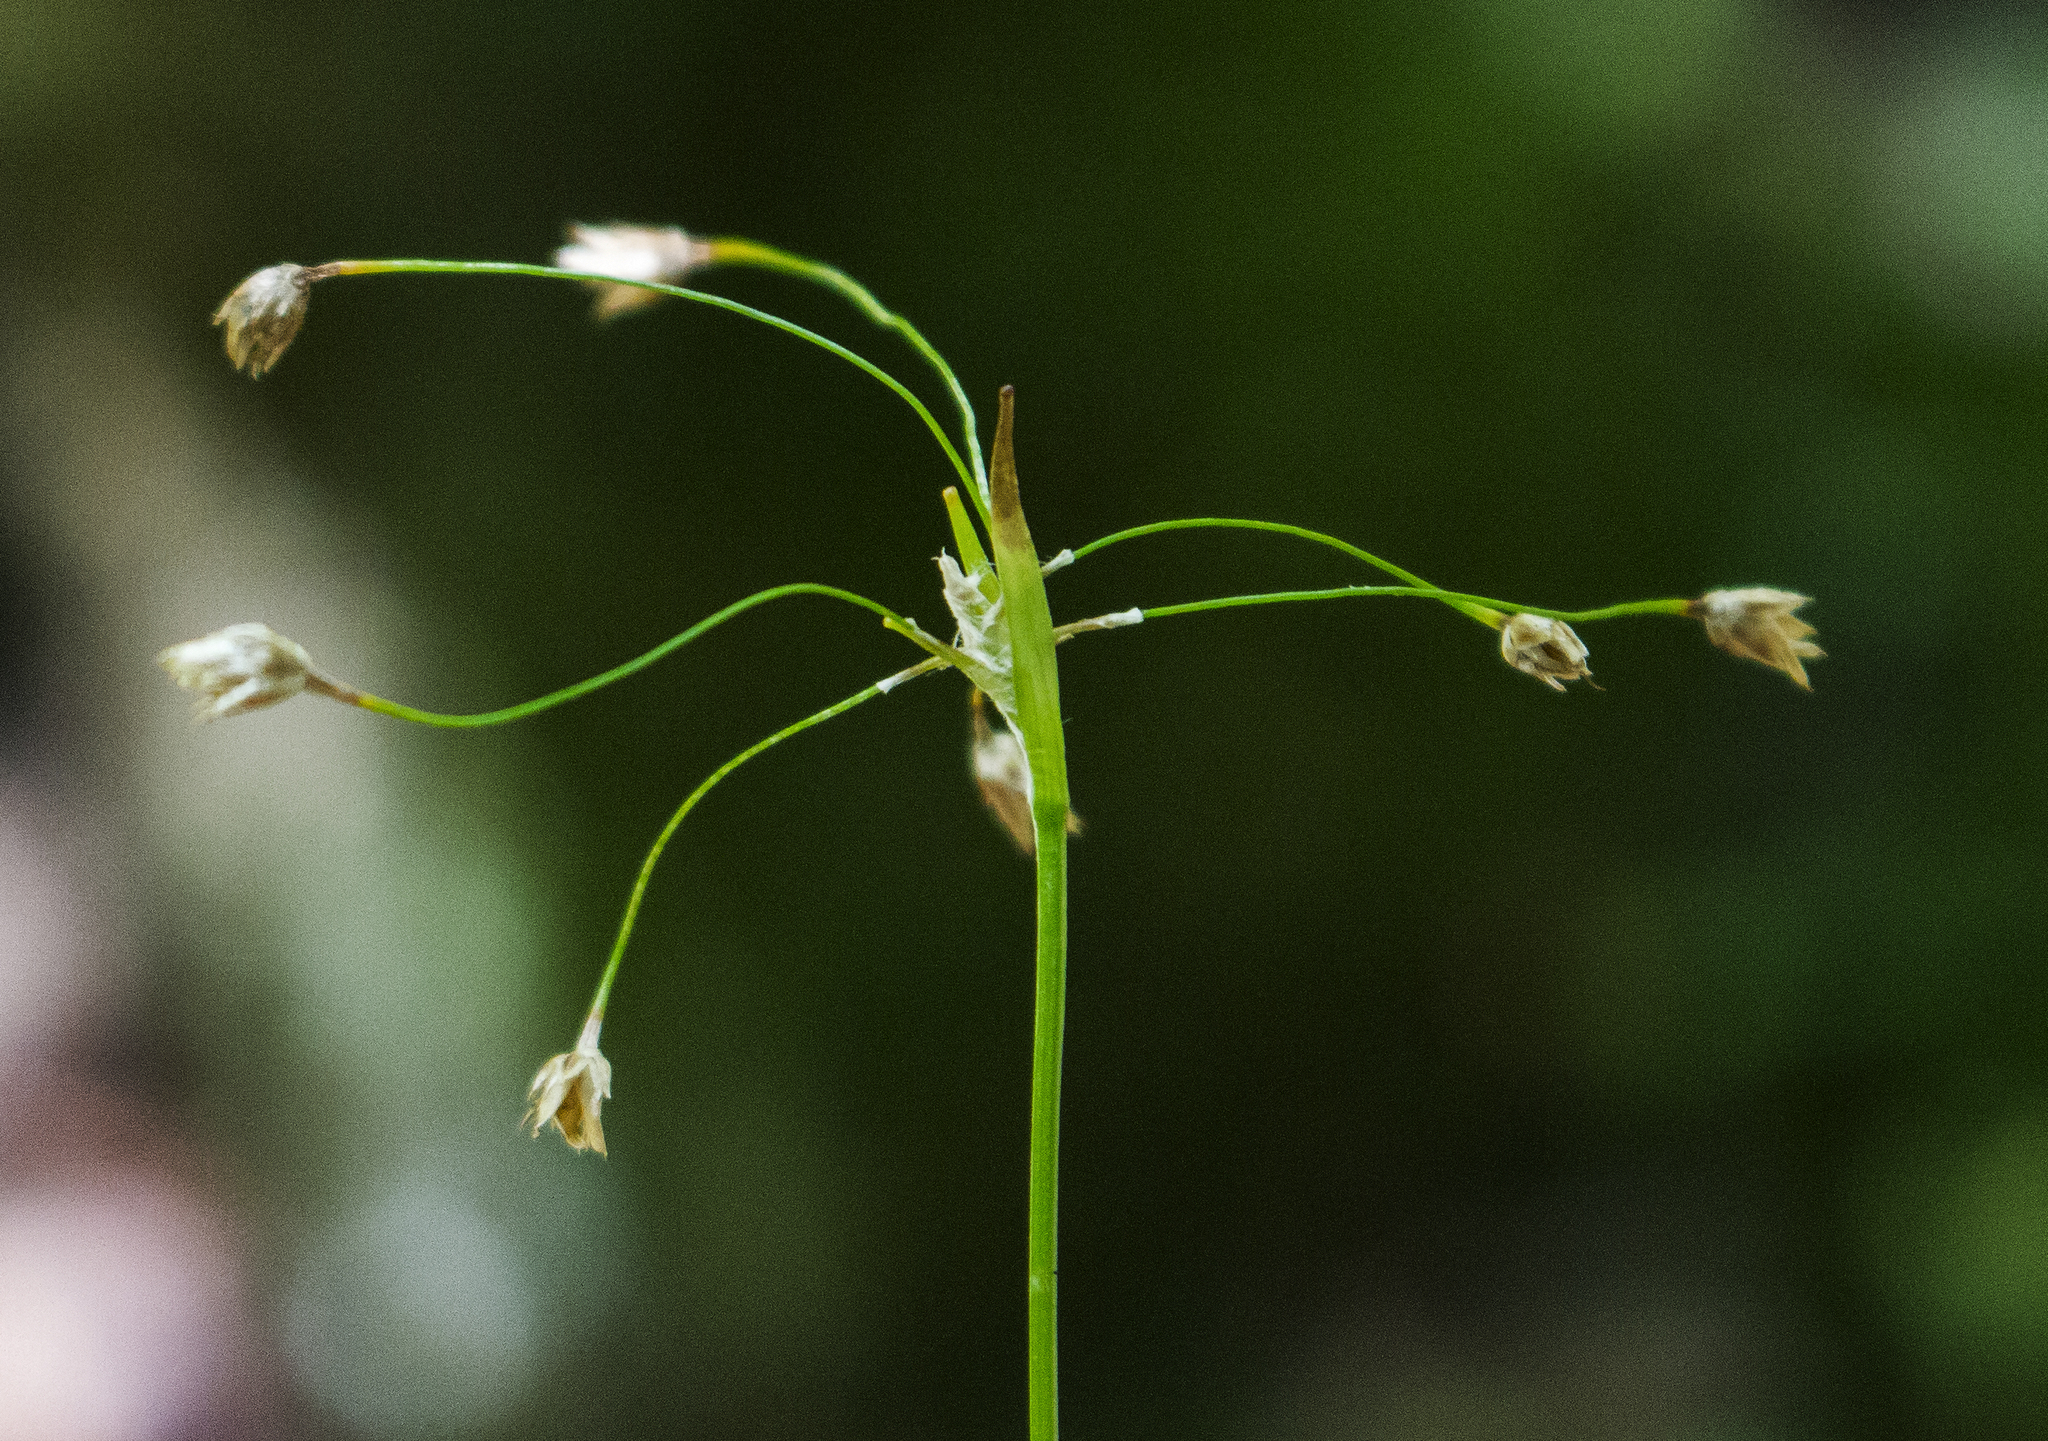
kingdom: Plantae
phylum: Tracheophyta
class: Liliopsida
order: Poales
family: Juncaceae
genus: Luzula
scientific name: Luzula acuminata
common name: Hairy woodrush
